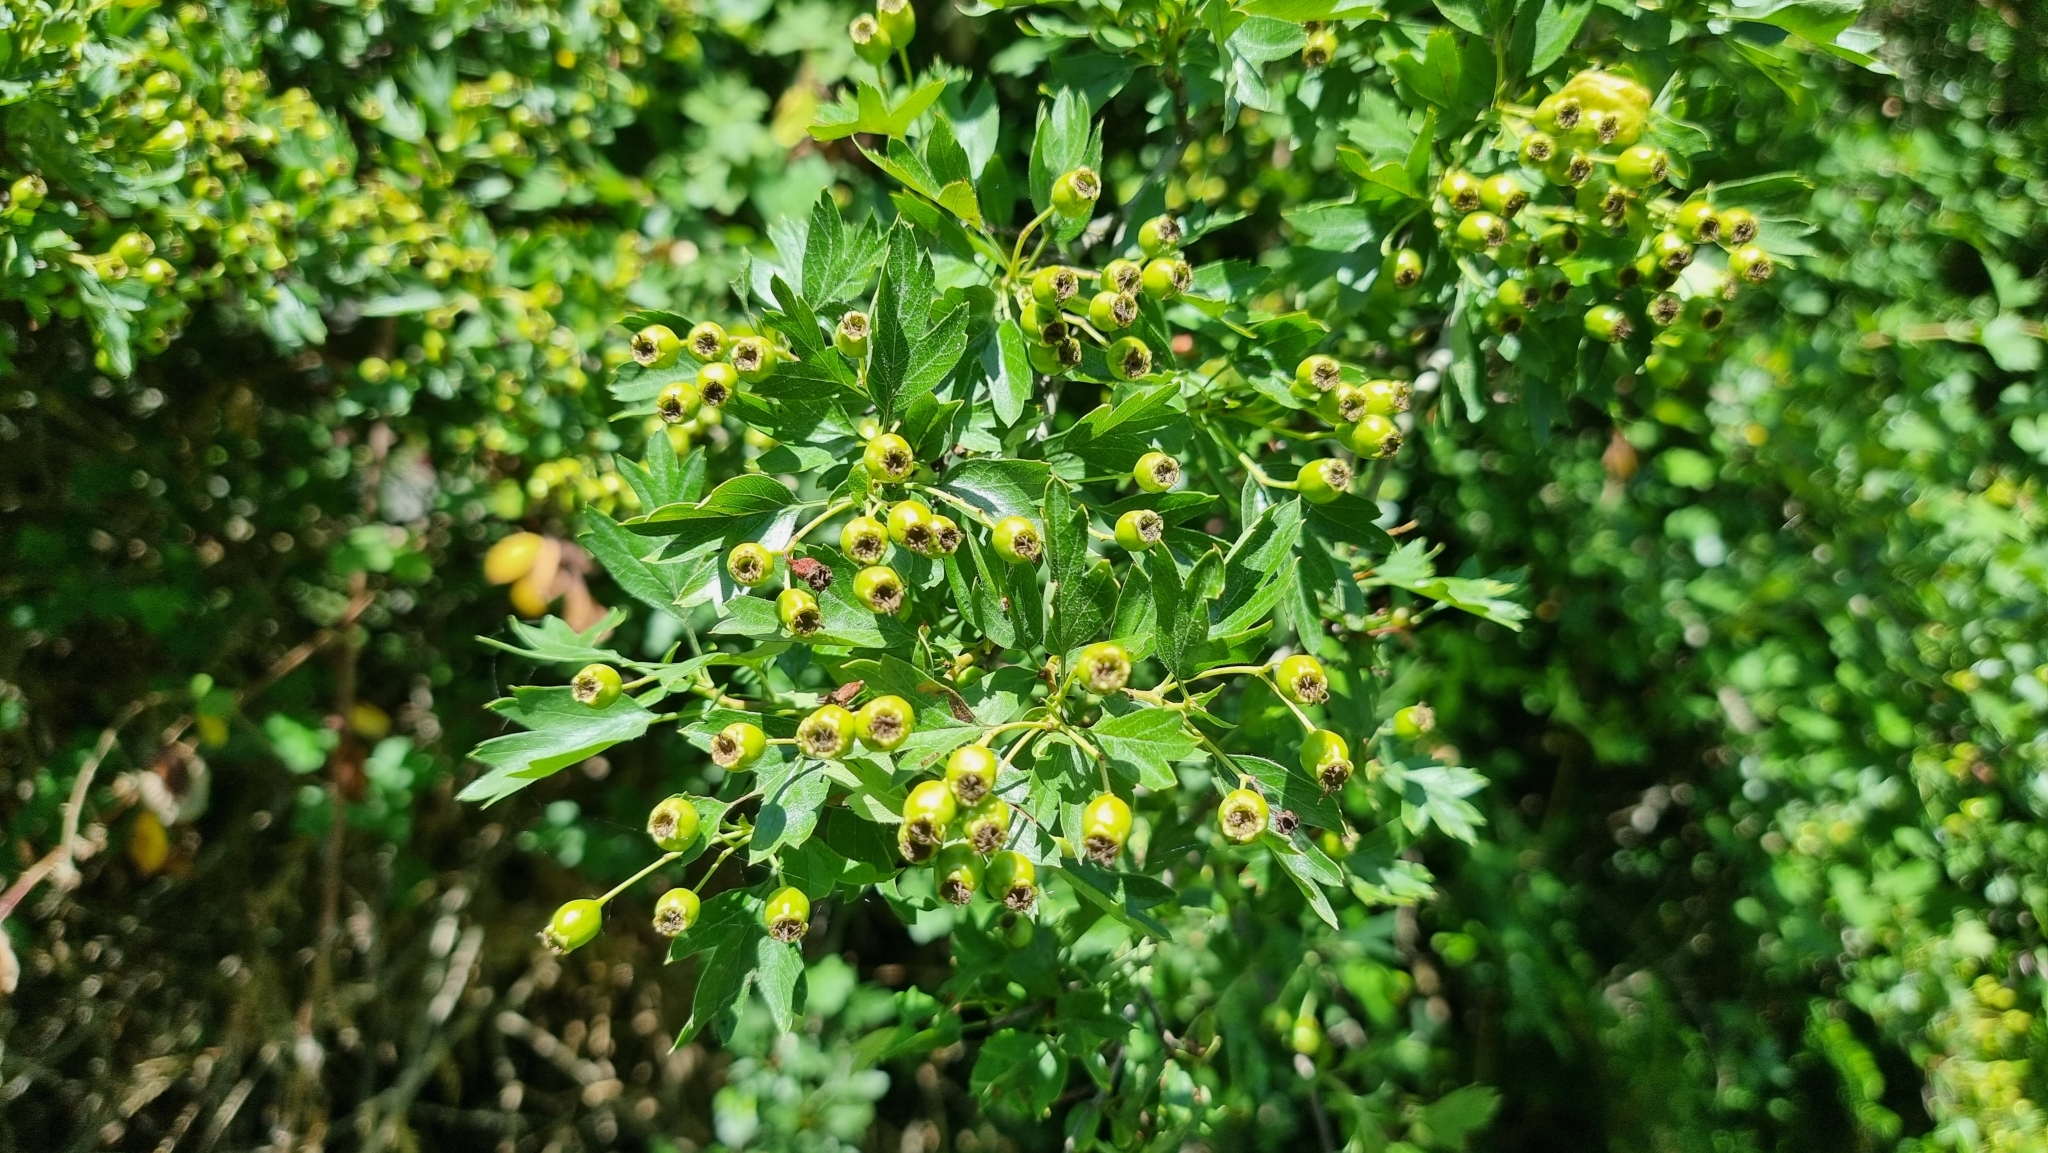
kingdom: Plantae
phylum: Tracheophyta
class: Magnoliopsida
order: Rosales
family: Rosaceae
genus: Crataegus
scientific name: Crataegus monogyna
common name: Hawthorn
